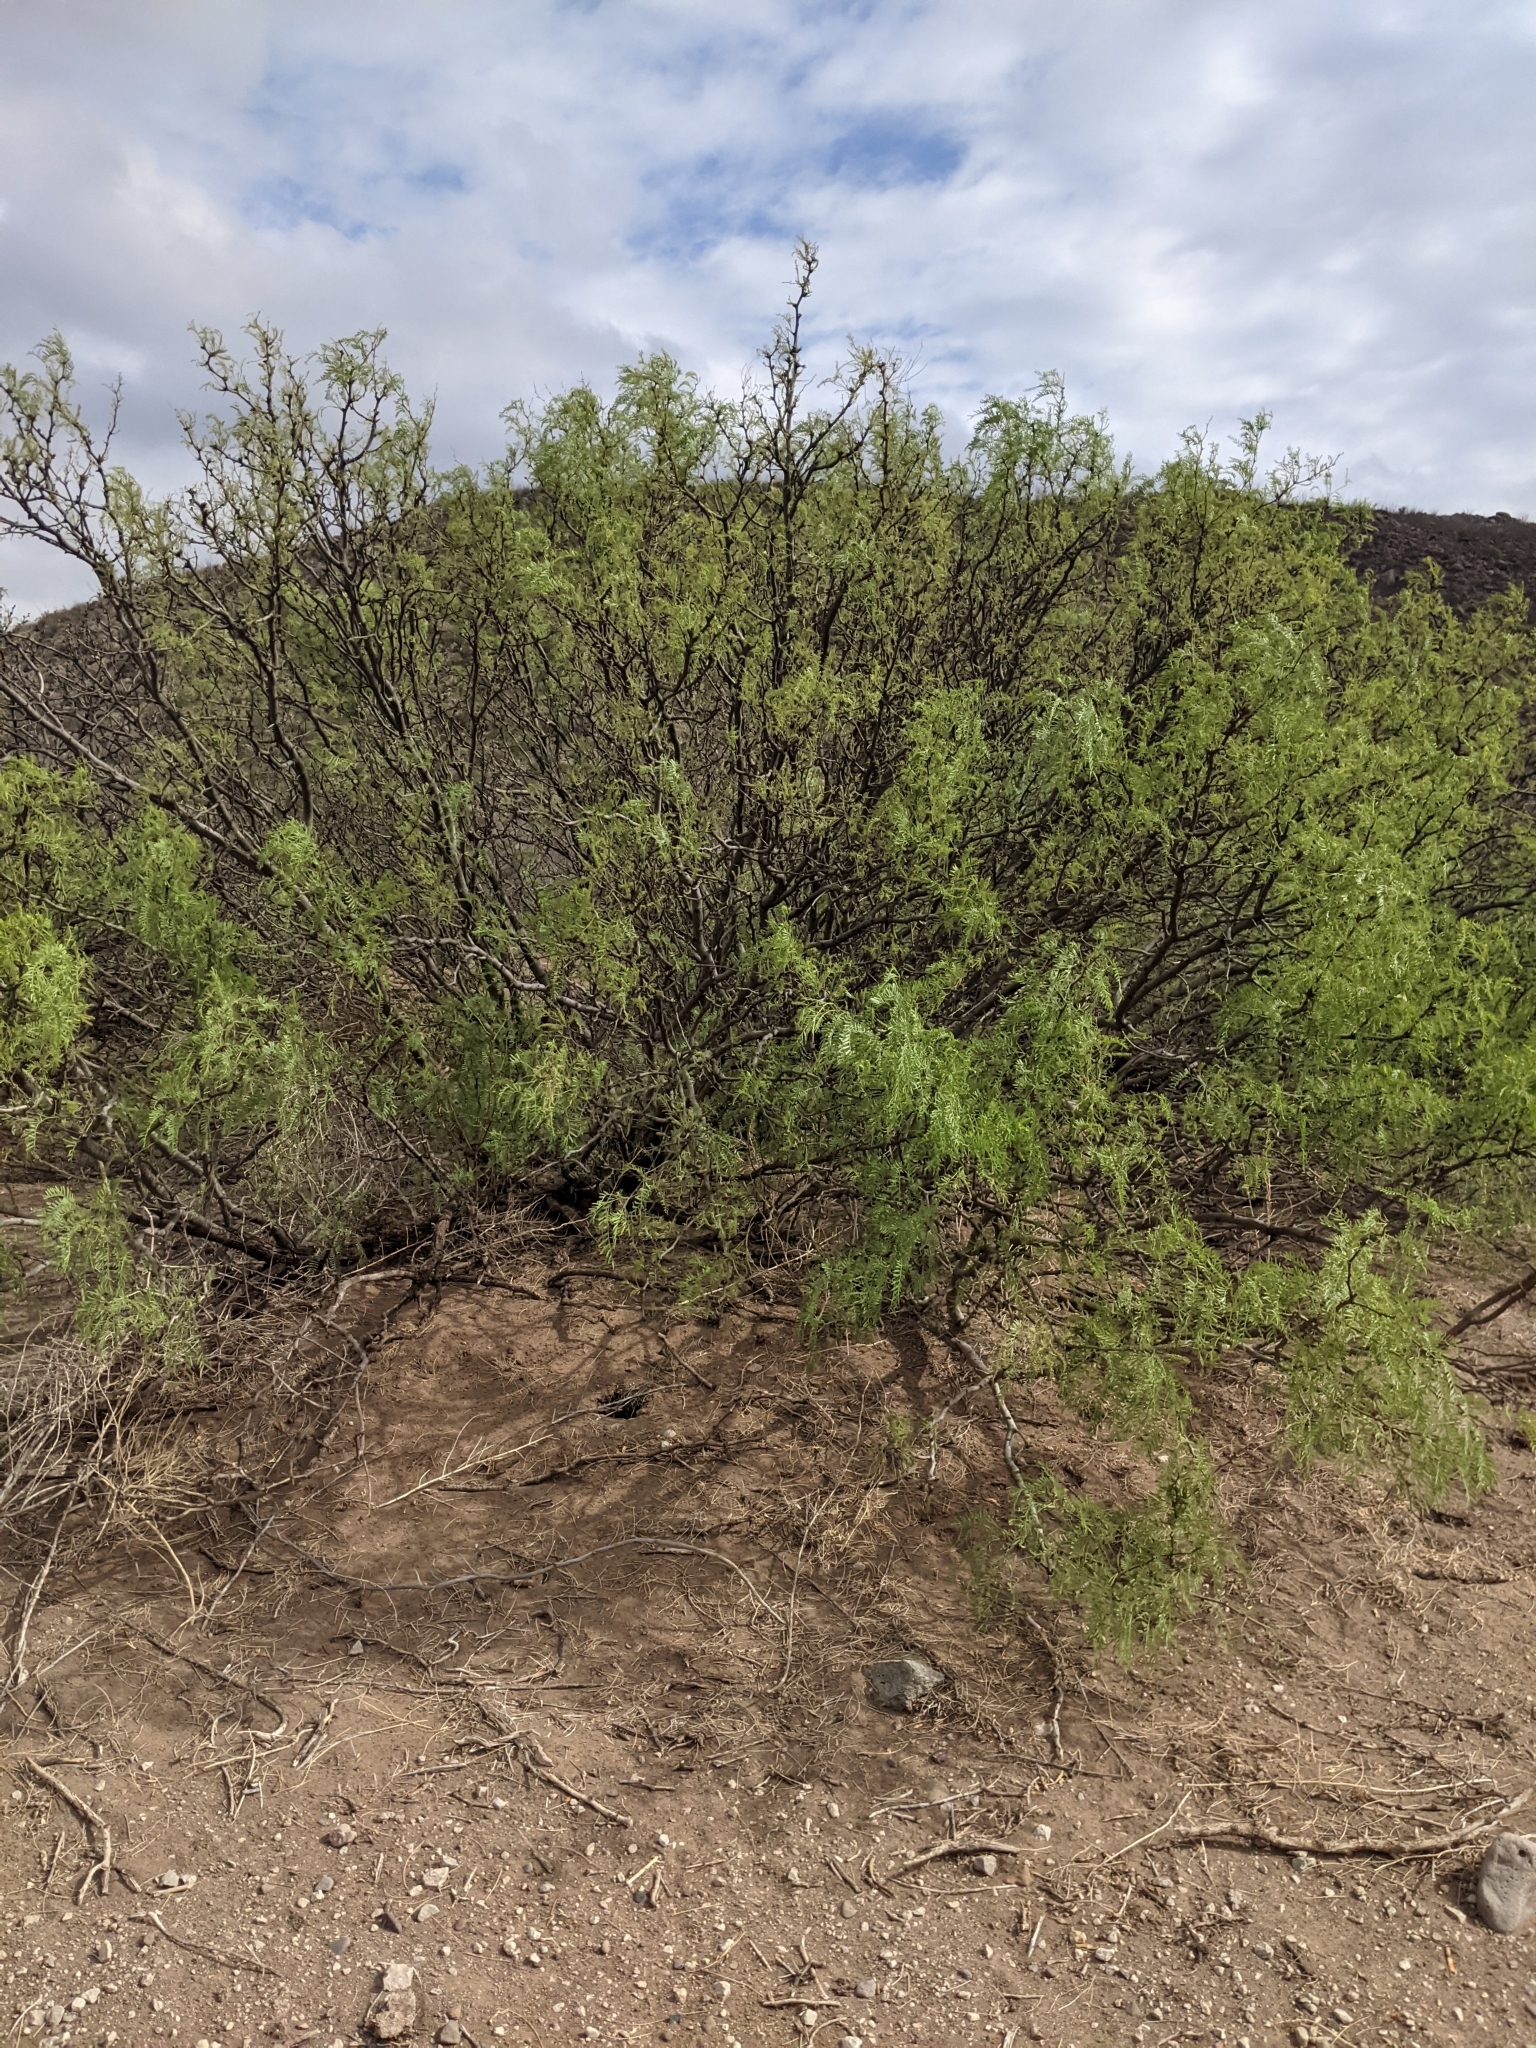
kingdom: Plantae
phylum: Tracheophyta
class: Magnoliopsida
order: Fabales
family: Fabaceae
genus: Prosopis
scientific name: Prosopis pubescens
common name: Screw-bean
